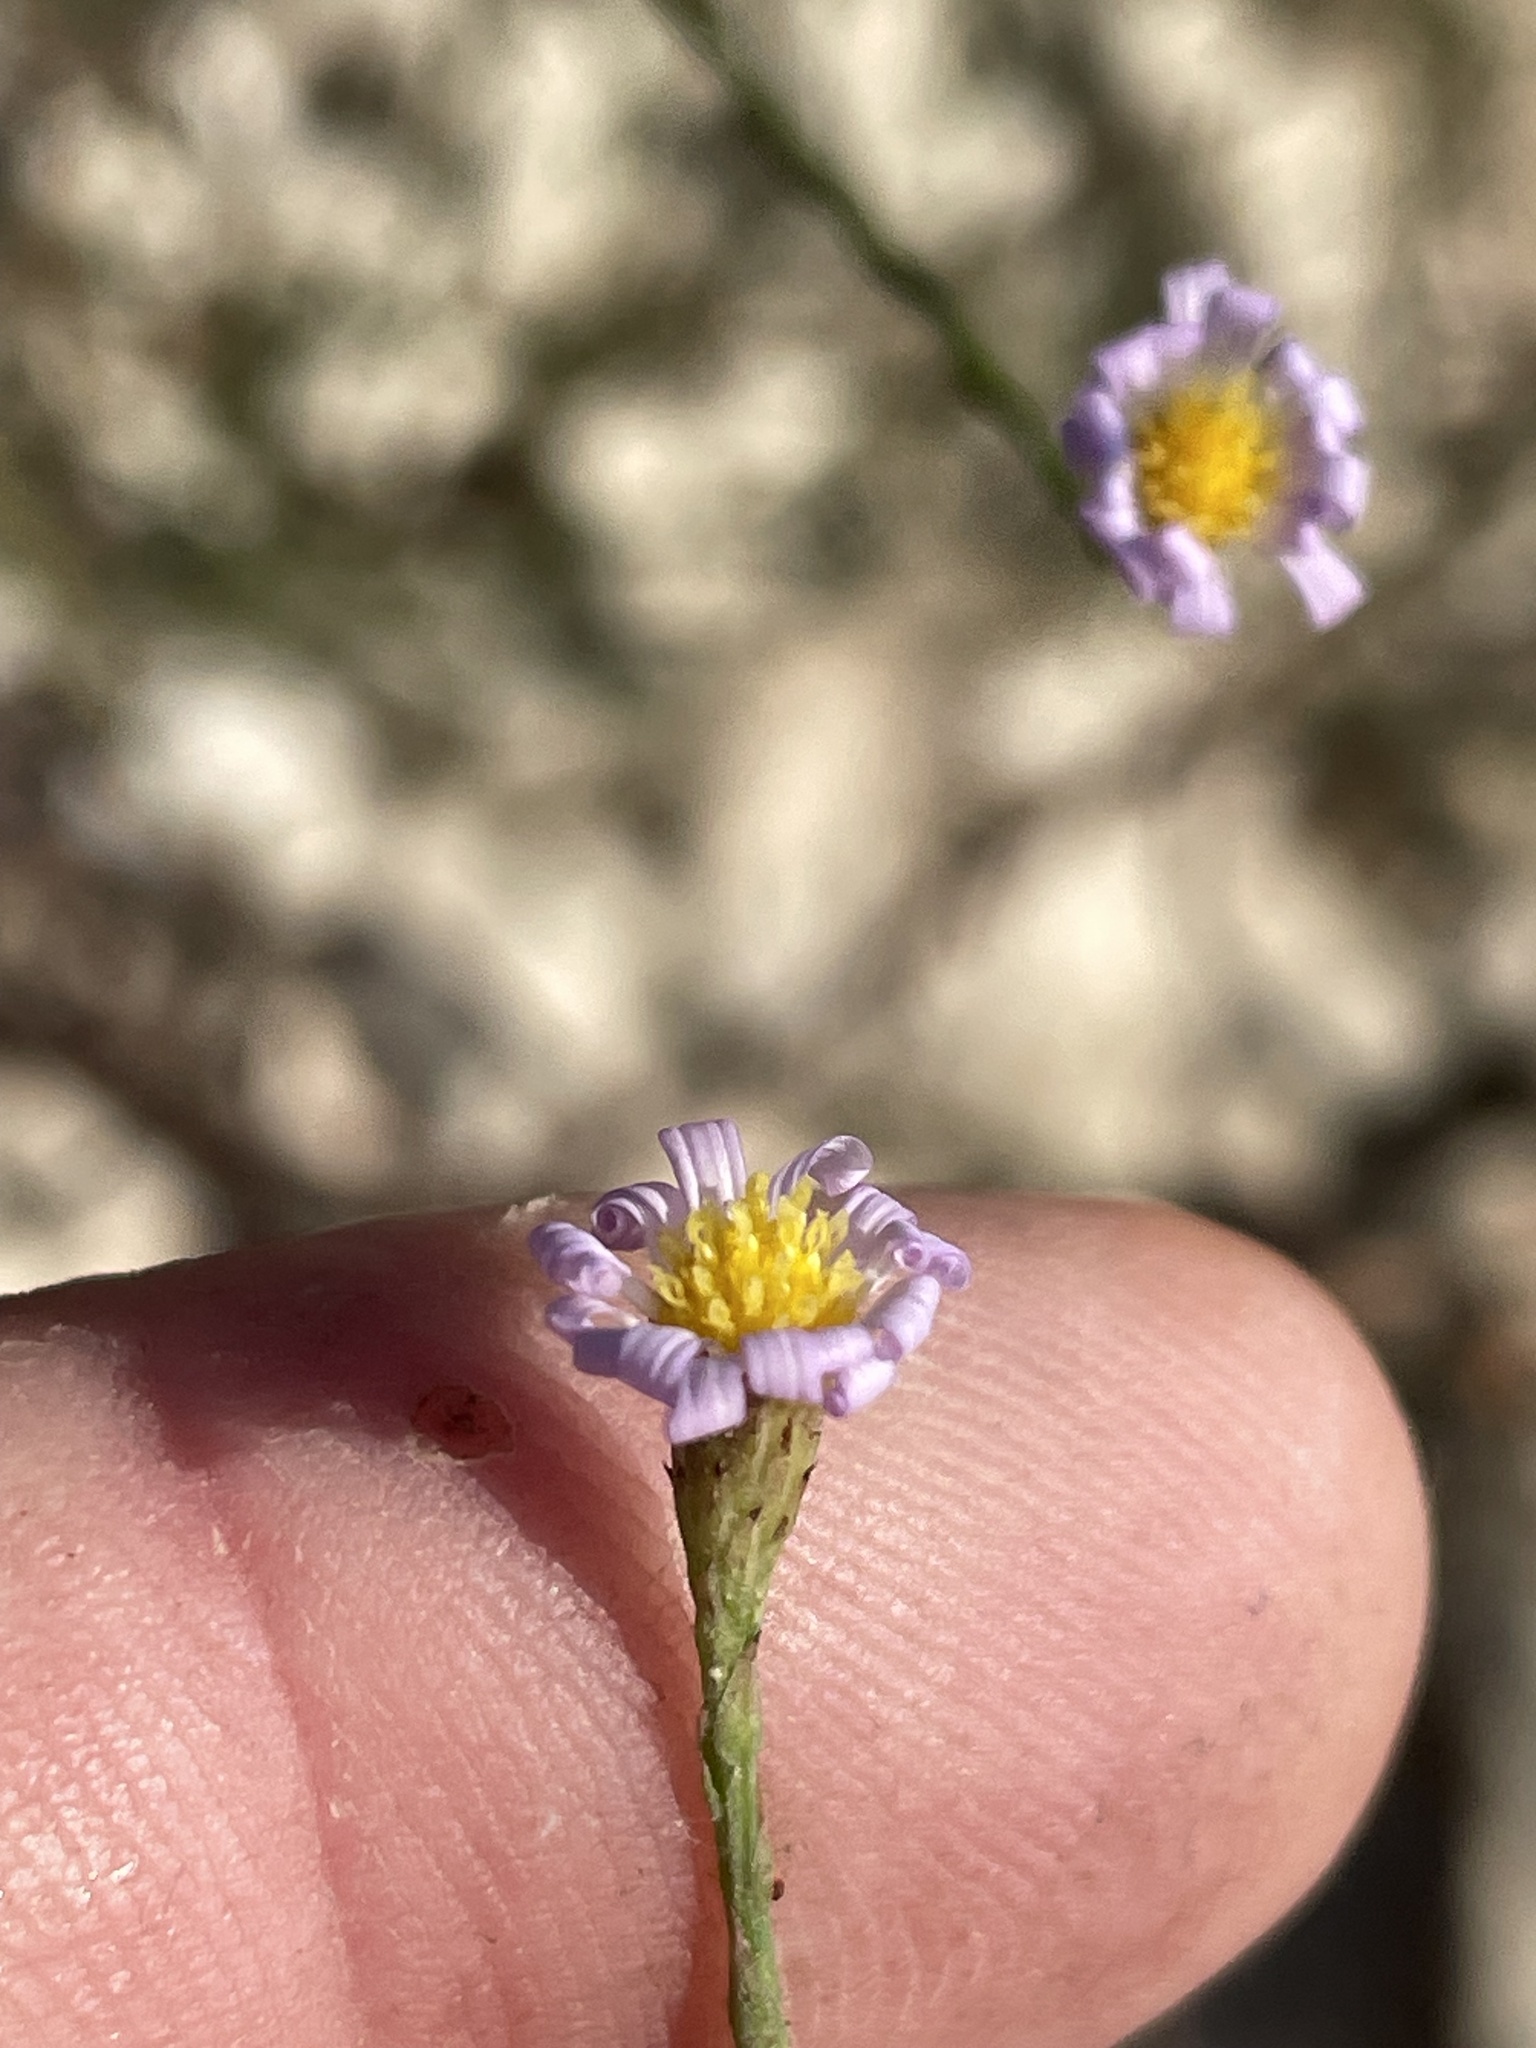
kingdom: Plantae
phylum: Tracheophyta
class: Magnoliopsida
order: Asterales
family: Asteraceae
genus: Symphyotrichum
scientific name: Symphyotrichum divaricatum
